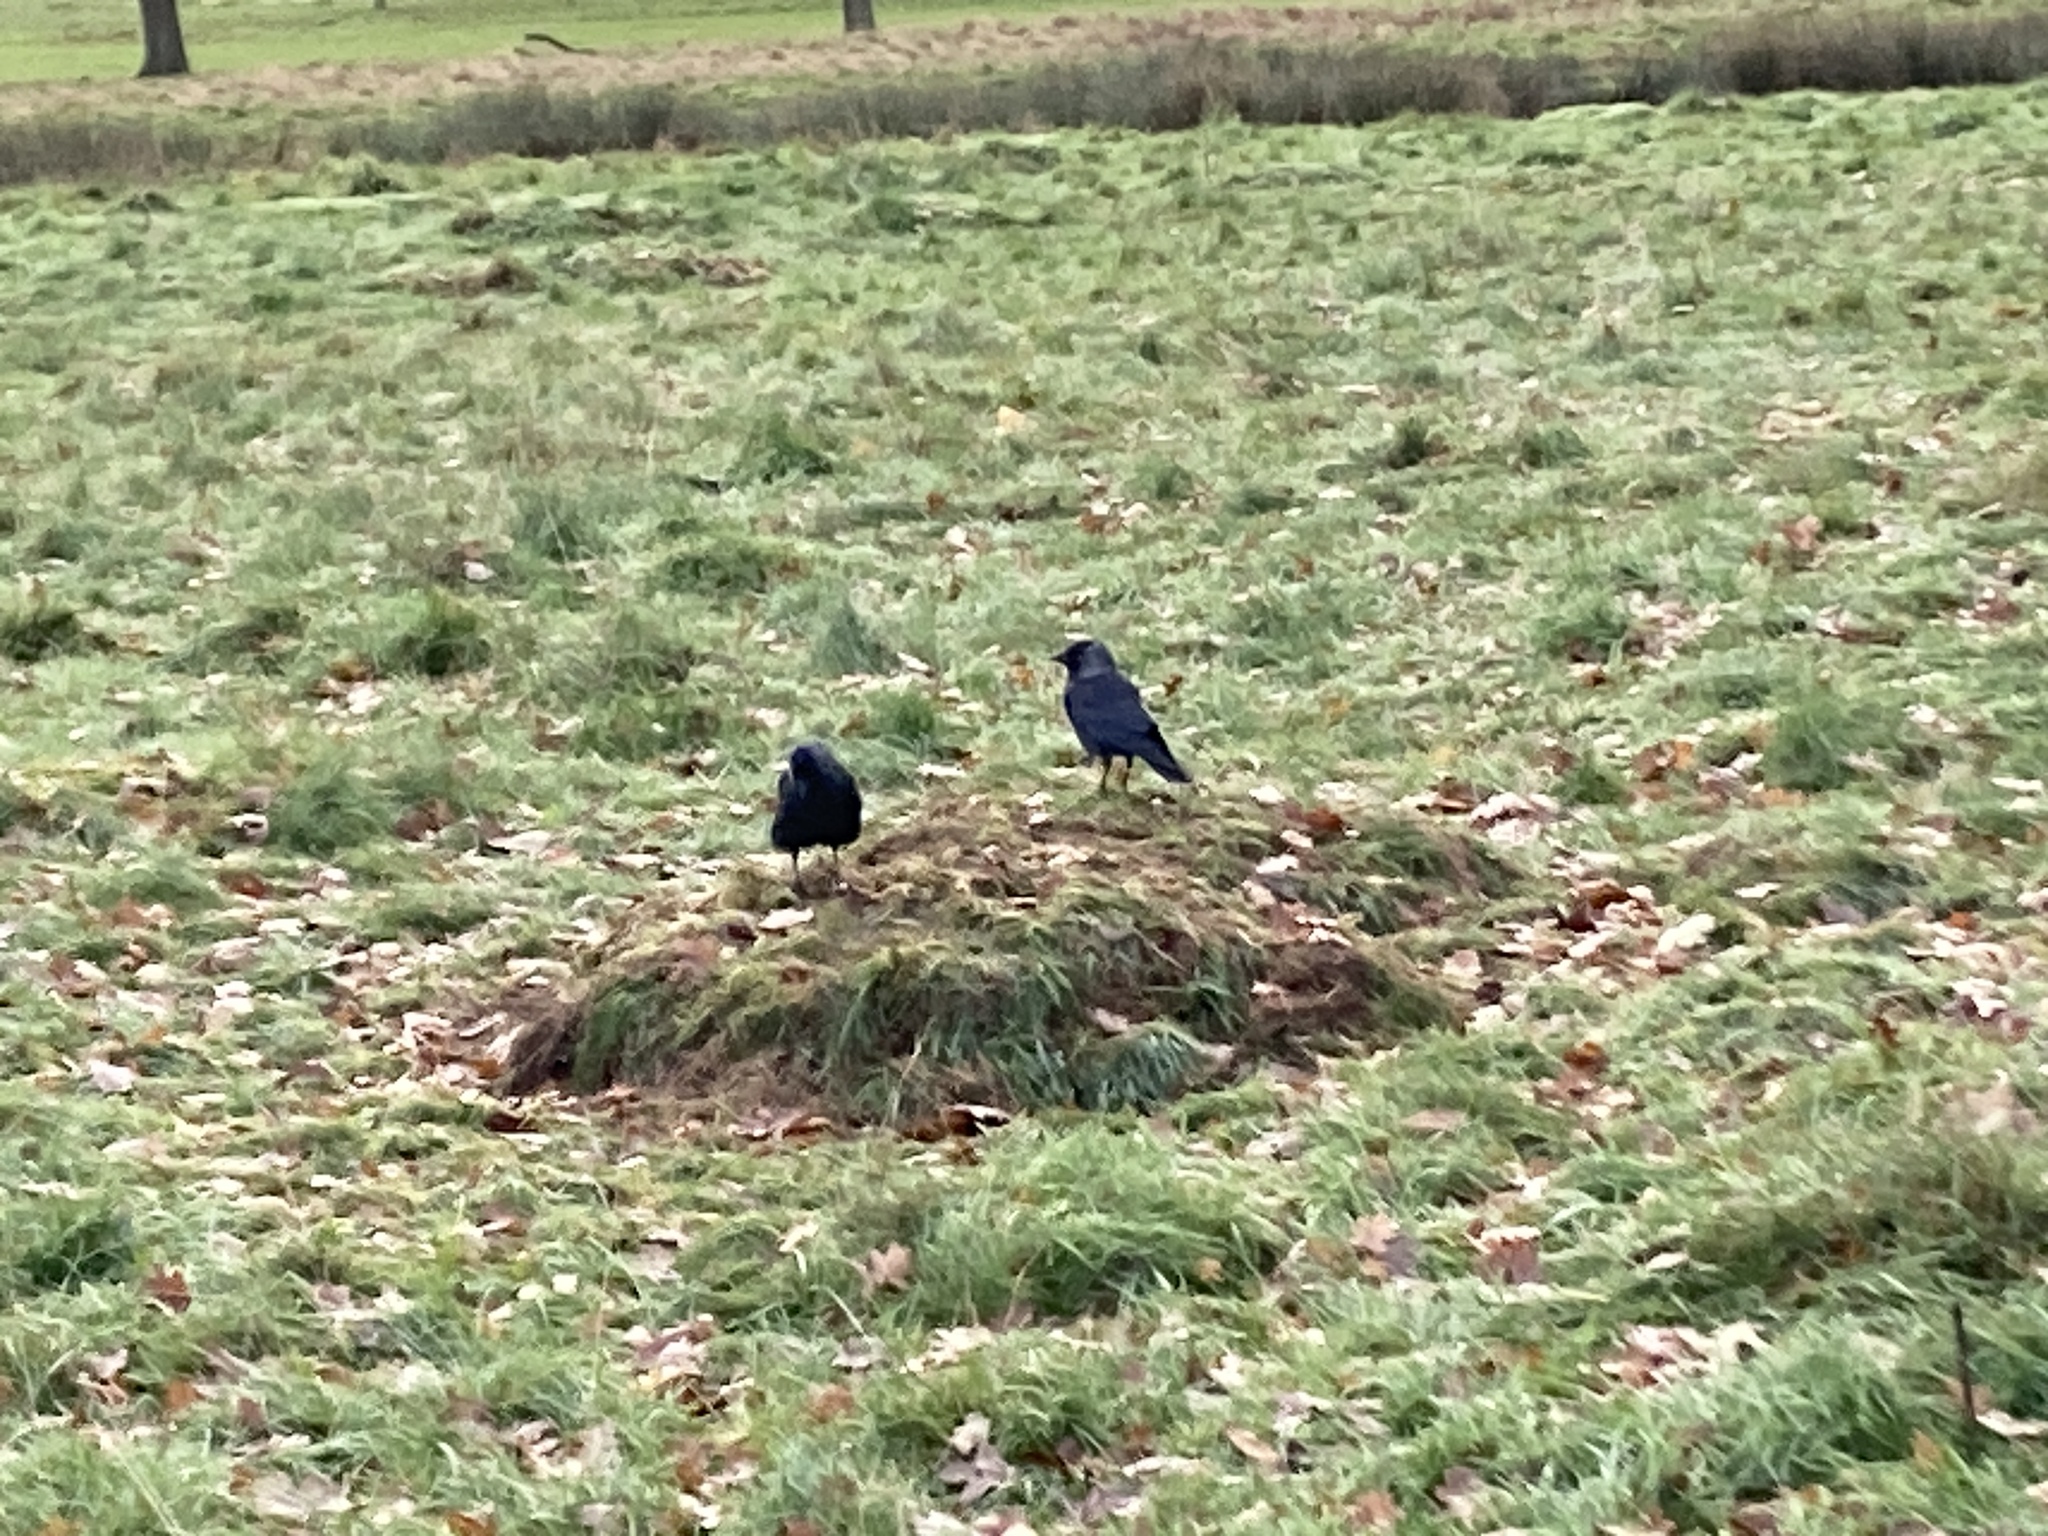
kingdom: Animalia
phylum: Chordata
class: Aves
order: Passeriformes
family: Corvidae
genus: Coloeus
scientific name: Coloeus monedula
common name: Western jackdaw
